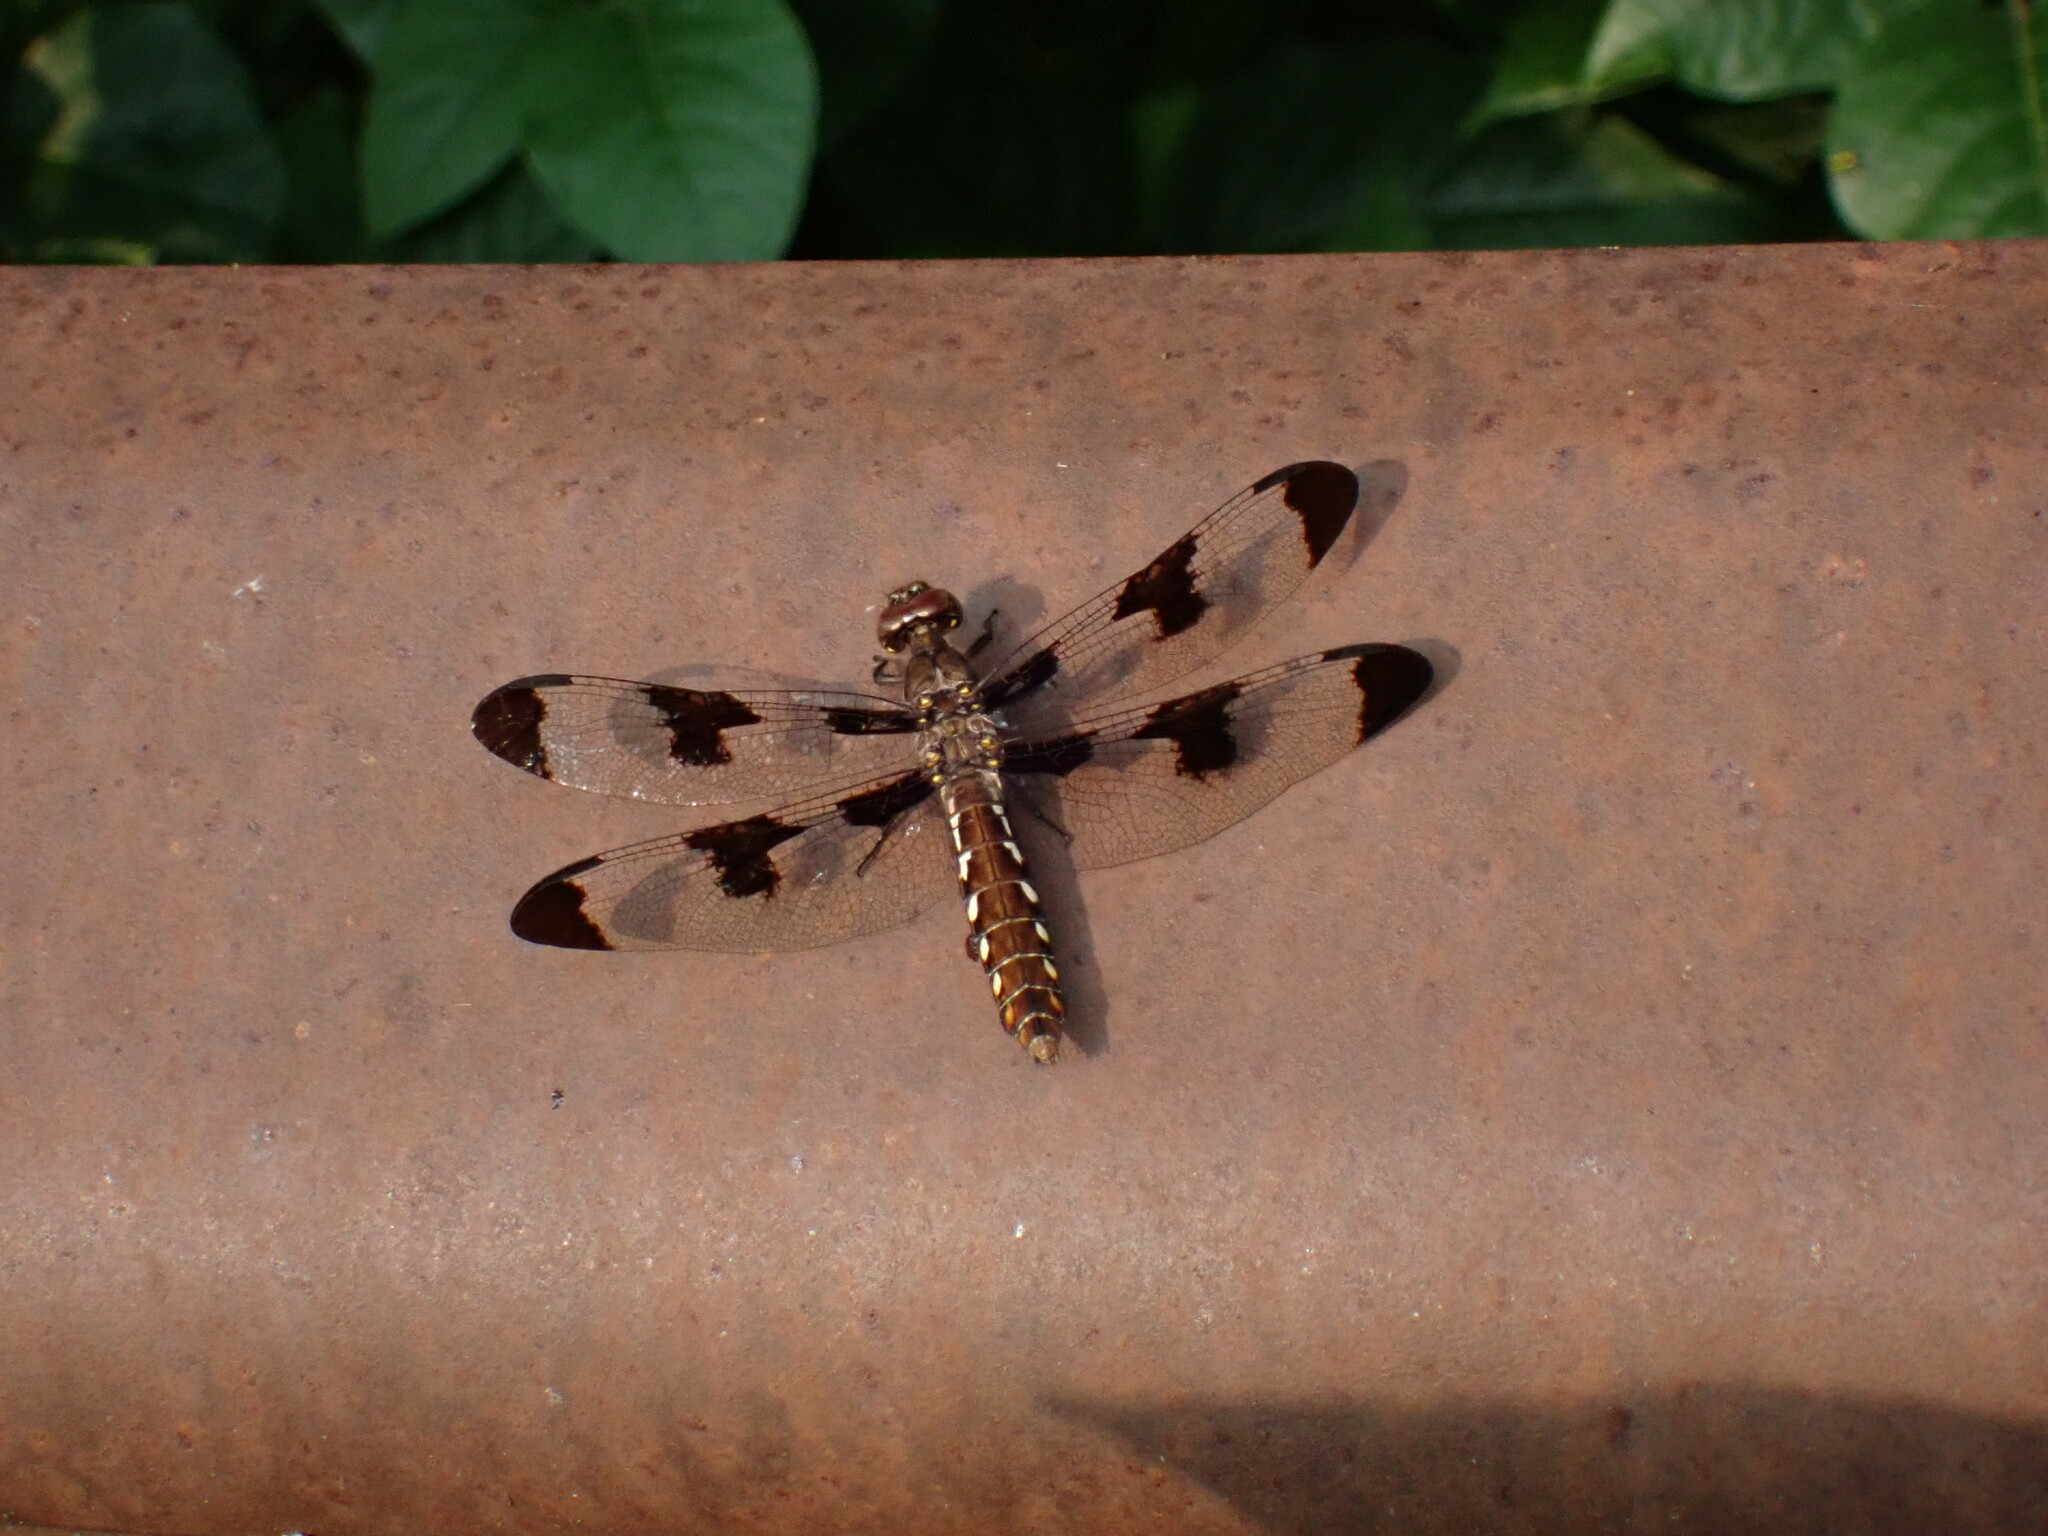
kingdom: Animalia
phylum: Arthropoda
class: Insecta
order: Odonata
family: Libellulidae
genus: Plathemis
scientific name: Plathemis lydia
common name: Common whitetail
